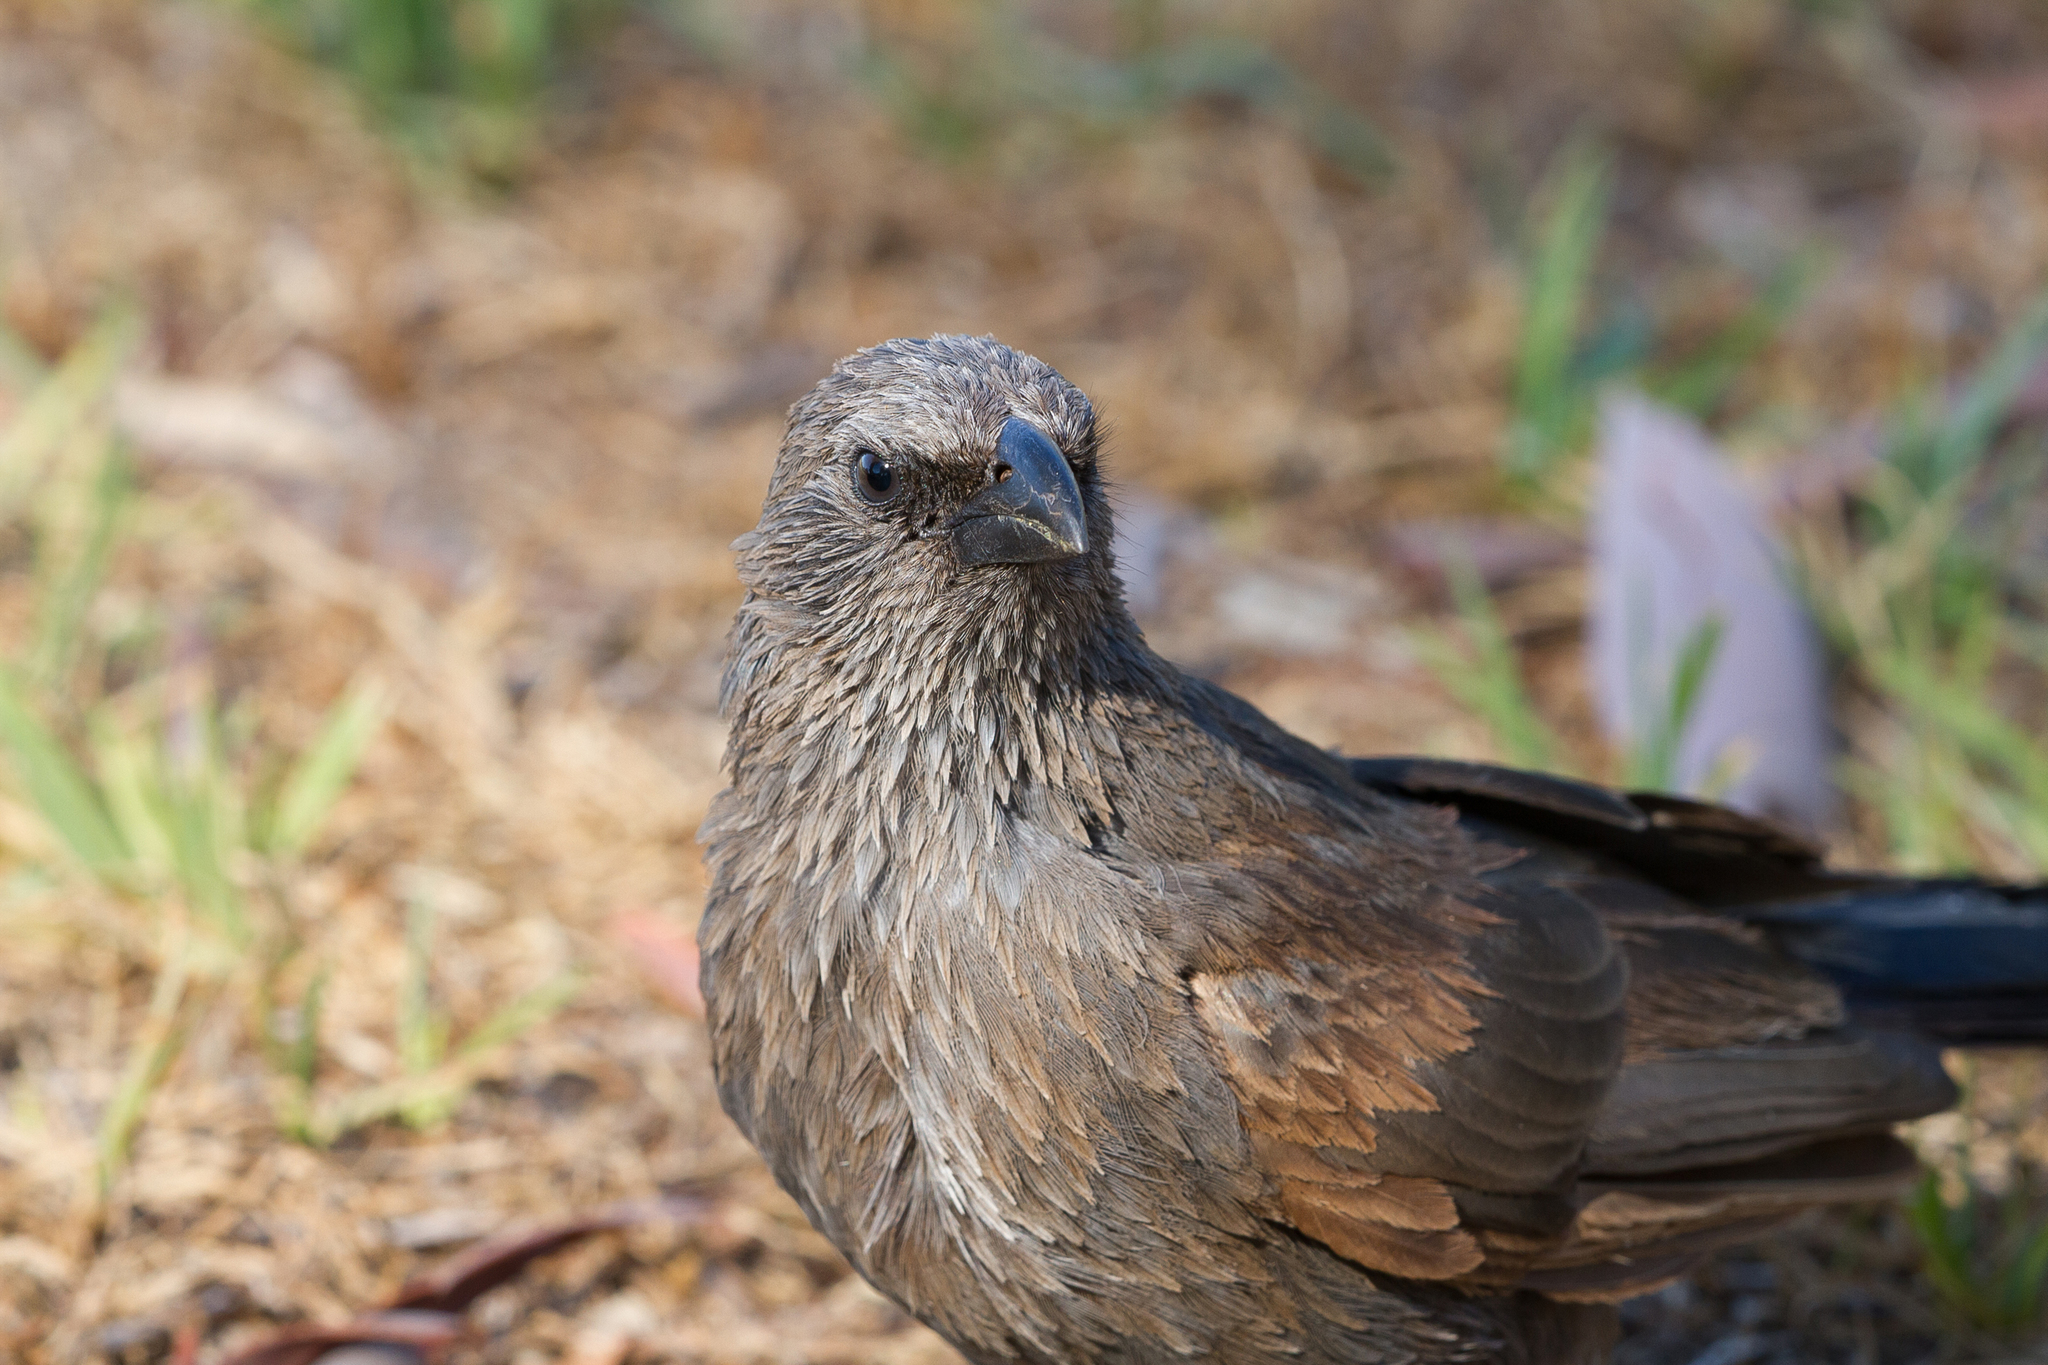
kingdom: Animalia
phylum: Chordata
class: Aves
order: Passeriformes
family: Corcoracidae
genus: Struthidea
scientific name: Struthidea cinerea
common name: Apostlebird
